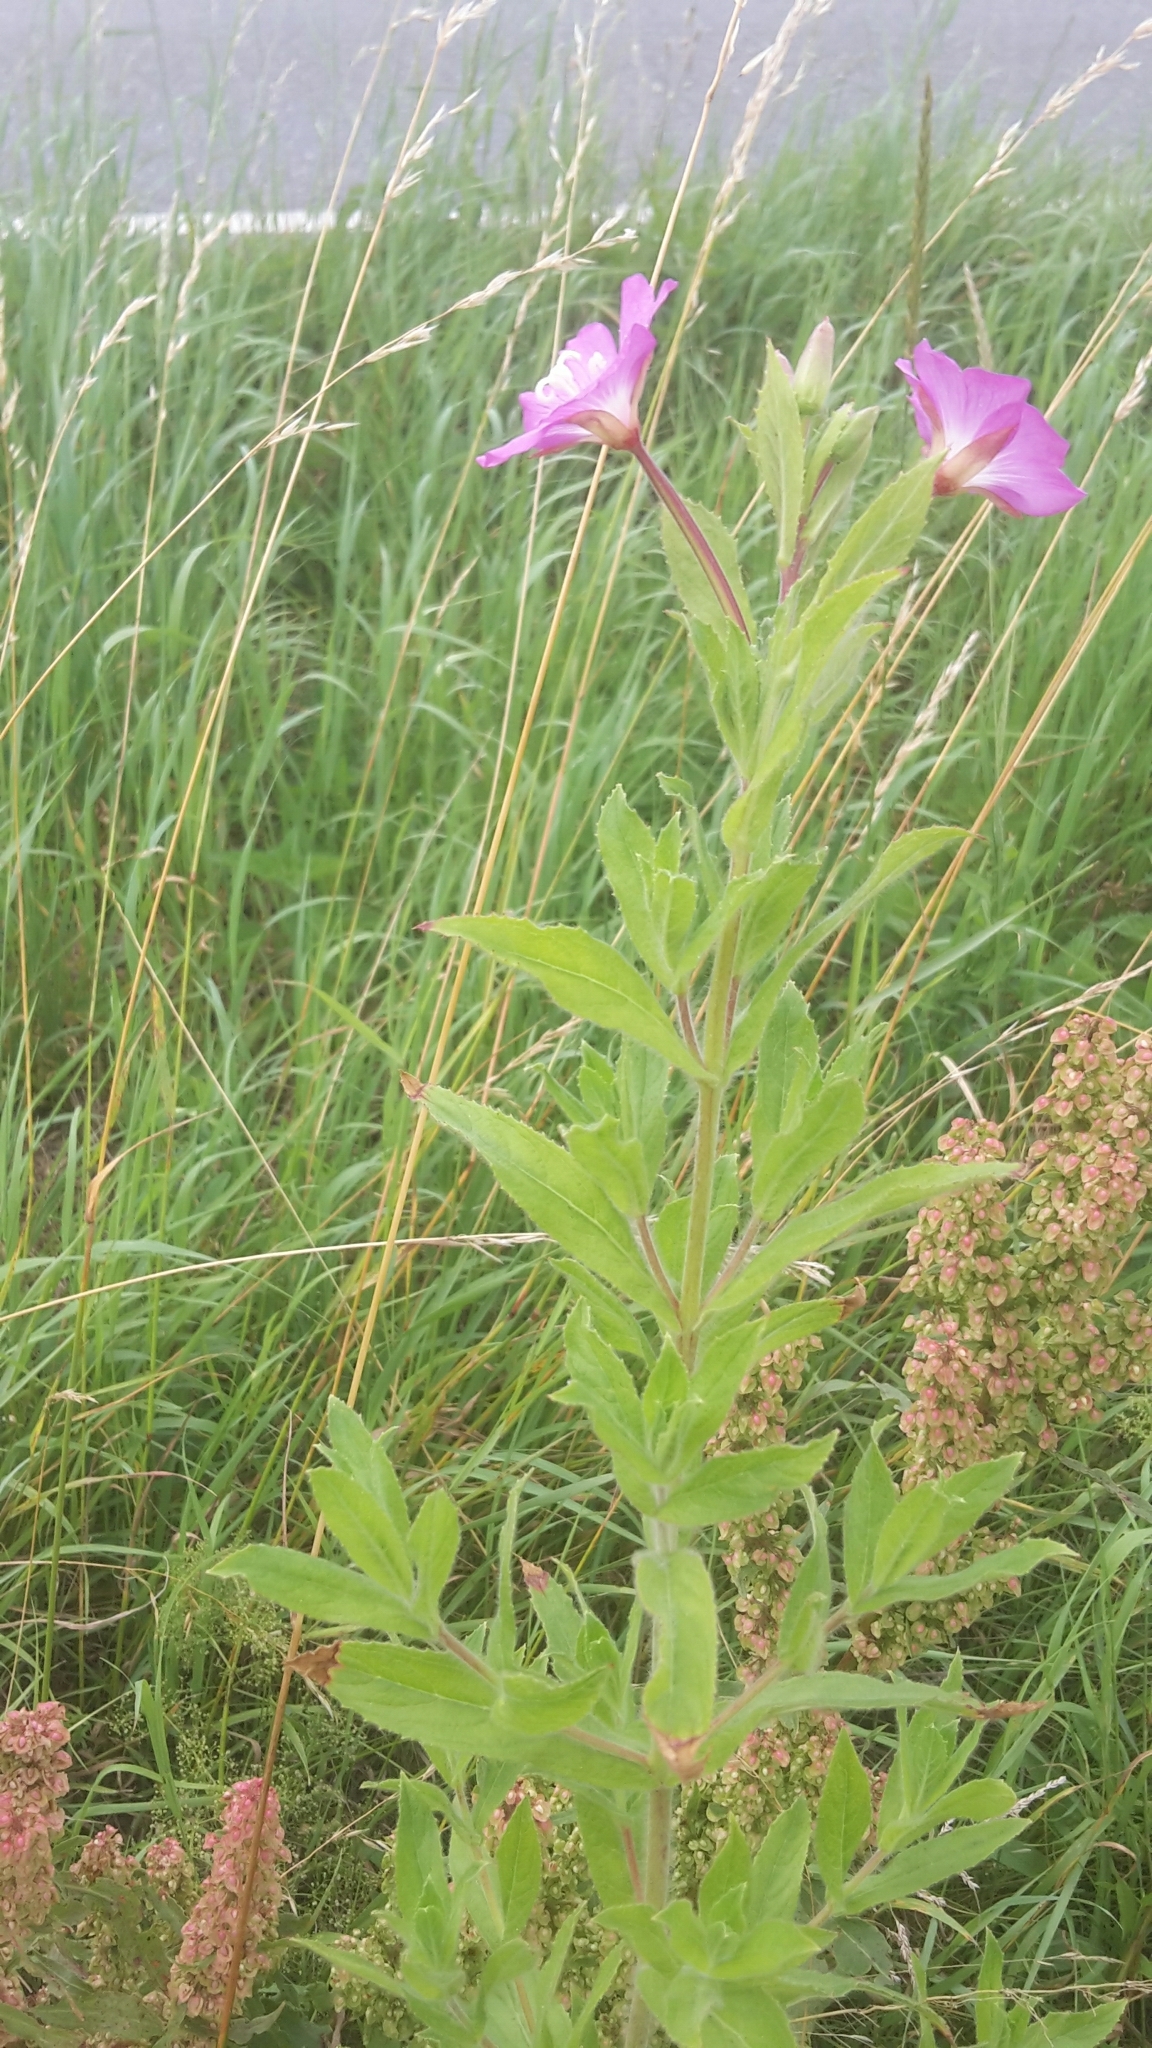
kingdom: Plantae
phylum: Tracheophyta
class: Magnoliopsida
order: Myrtales
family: Onagraceae
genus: Epilobium
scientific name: Epilobium hirsutum
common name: Great willowherb
